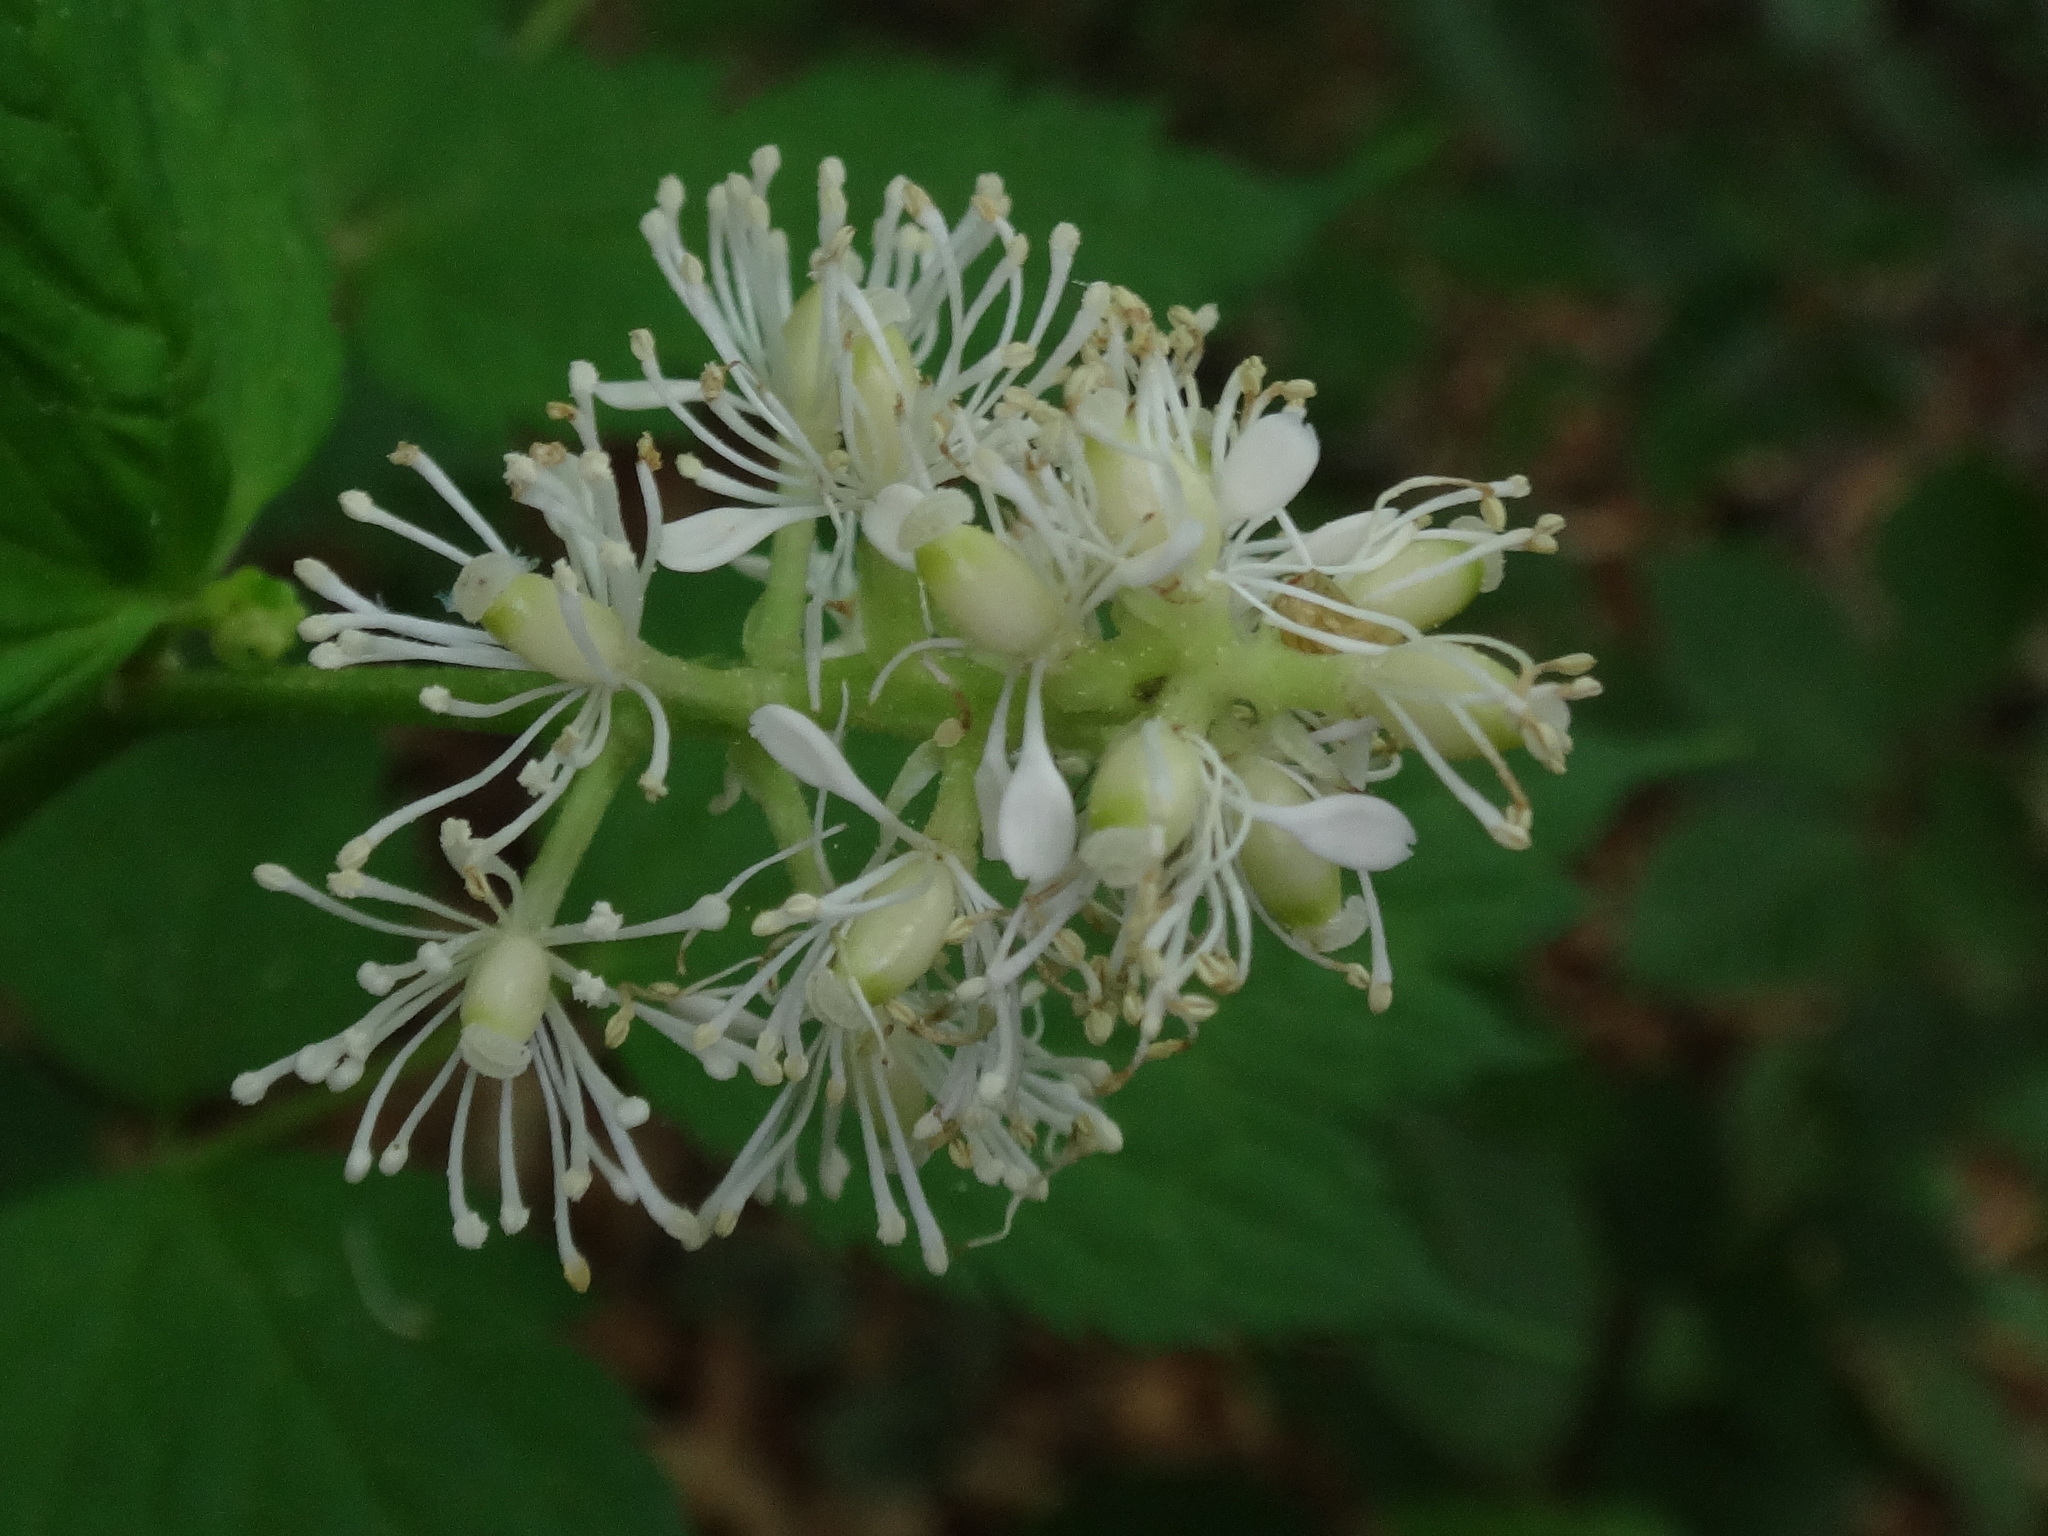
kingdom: Plantae
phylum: Tracheophyta
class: Magnoliopsida
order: Ranunculales
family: Ranunculaceae
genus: Actaea
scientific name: Actaea spicata
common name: Baneberry
